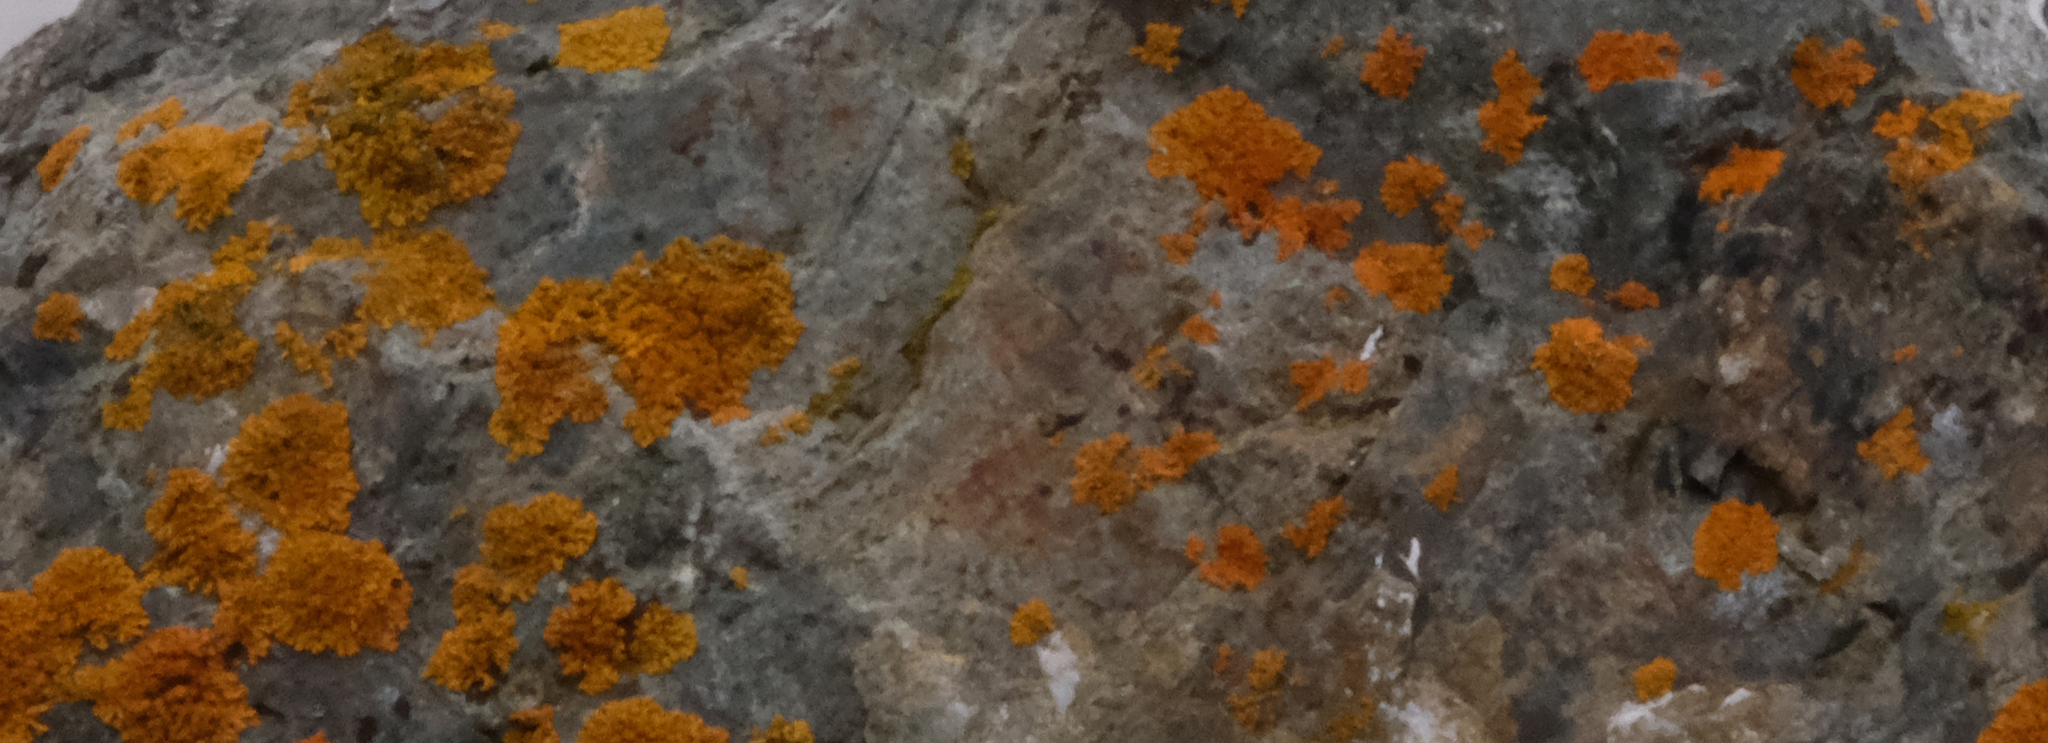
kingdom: Fungi
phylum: Ascomycota
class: Lecanoromycetes
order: Teloschistales
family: Teloschistaceae
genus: Xanthoria
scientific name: Xanthoria elegans
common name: Elegant sunburst lichen
